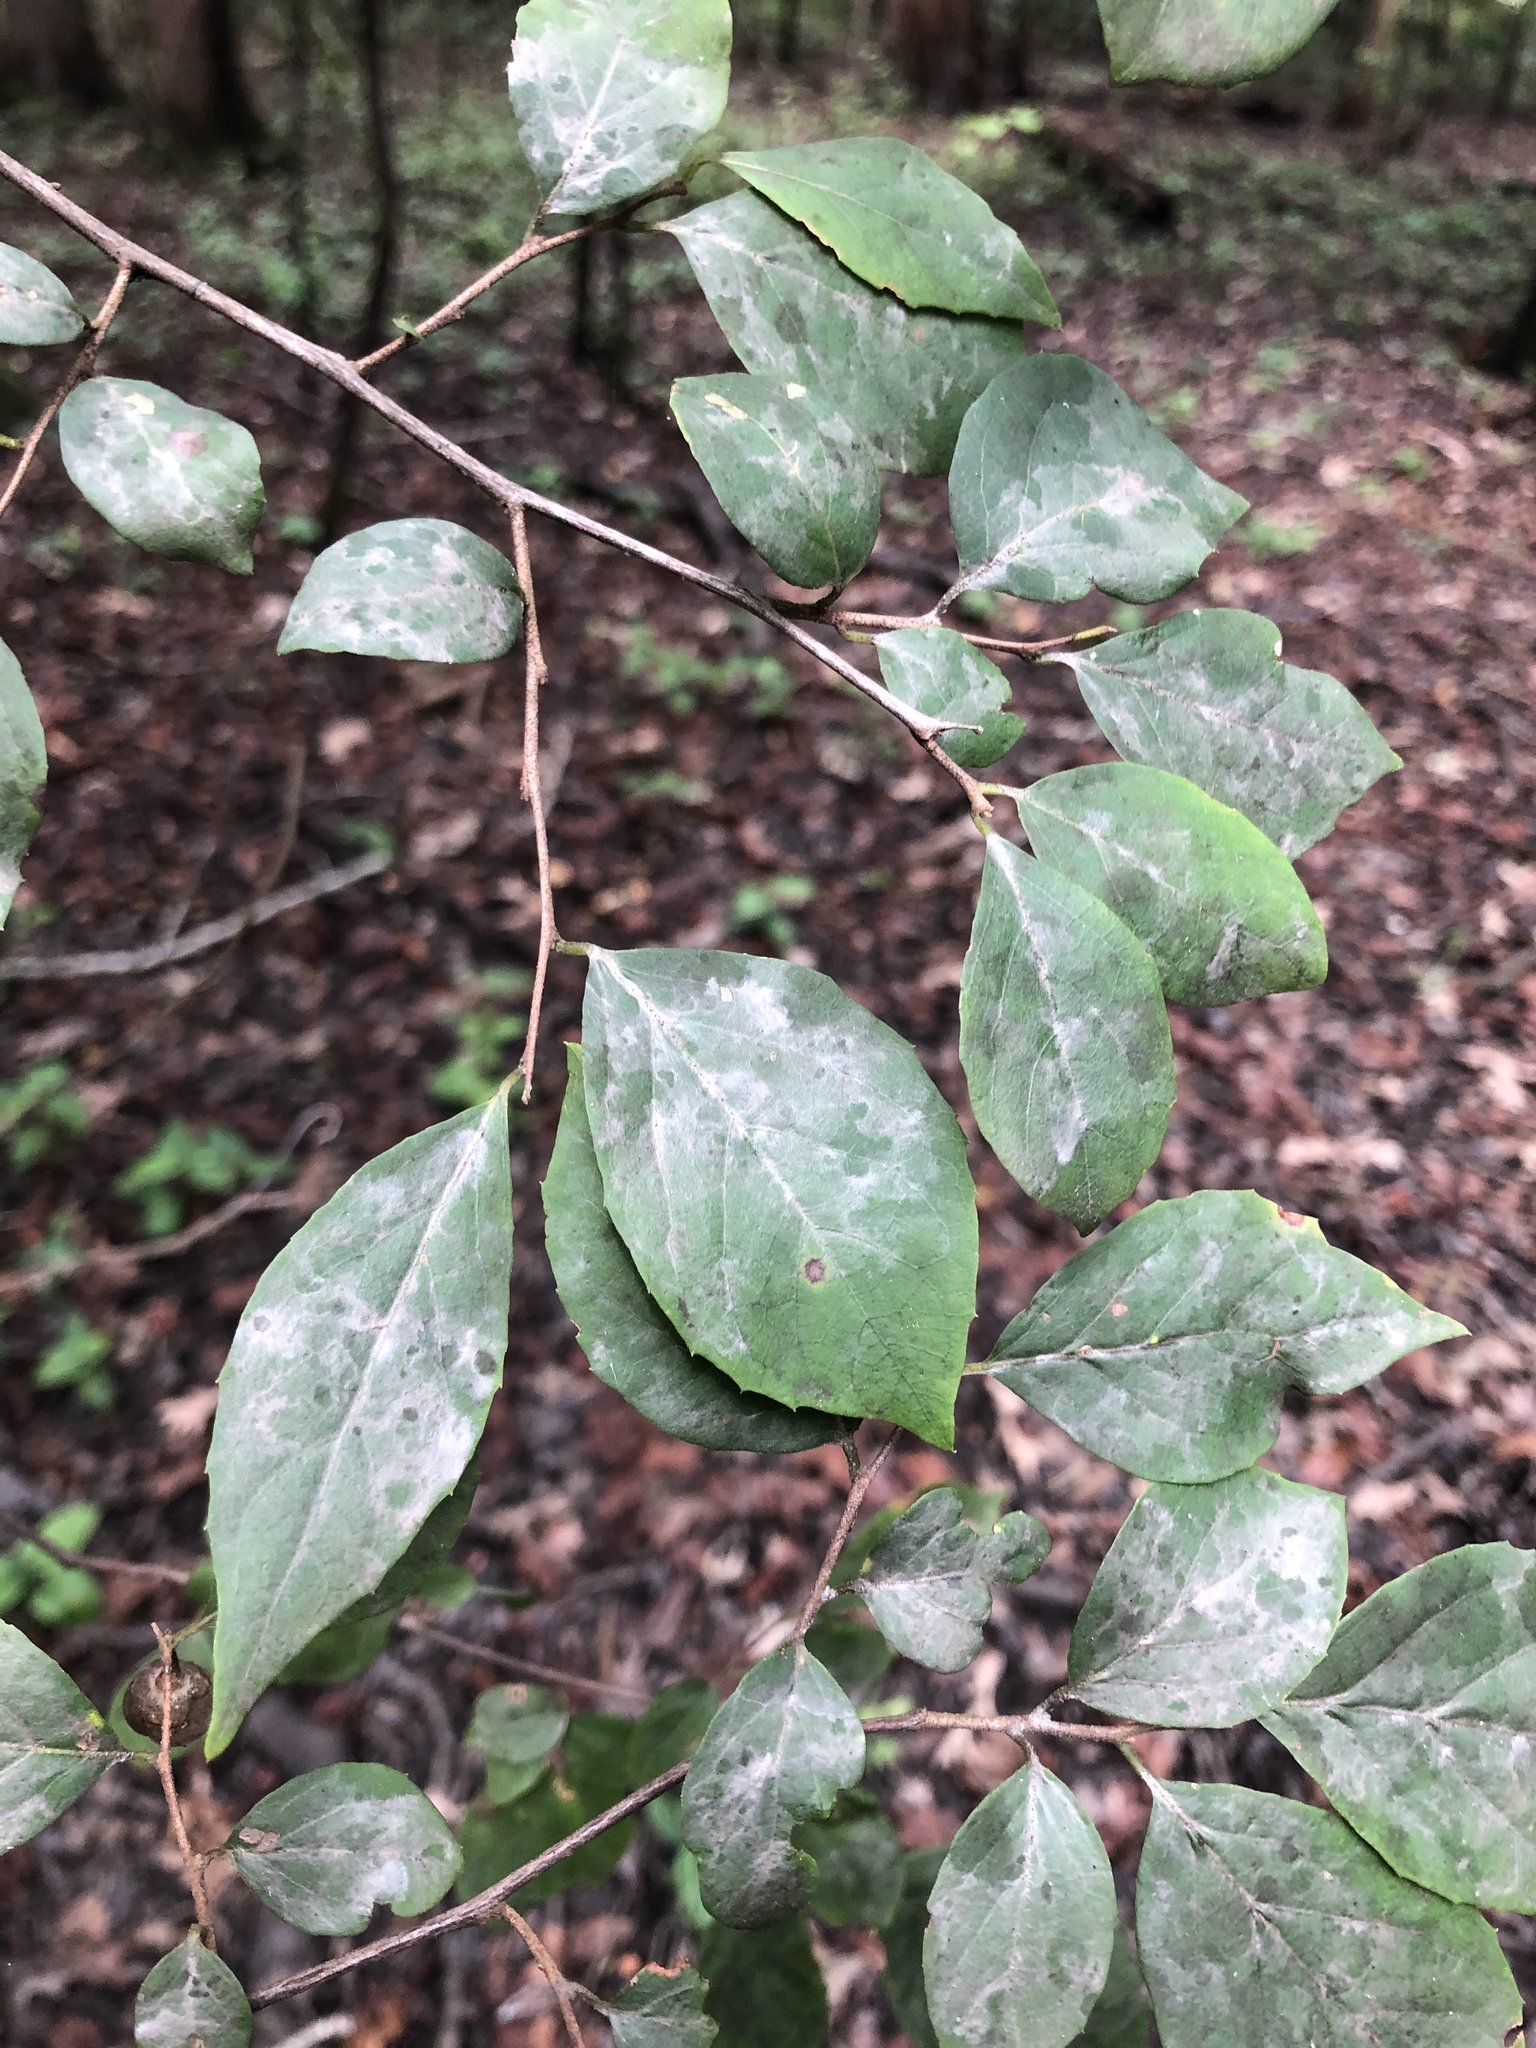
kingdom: Plantae
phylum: Tracheophyta
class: Magnoliopsida
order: Ericales
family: Styracaceae
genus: Styrax
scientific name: Styrax americanus
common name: American snowbell
